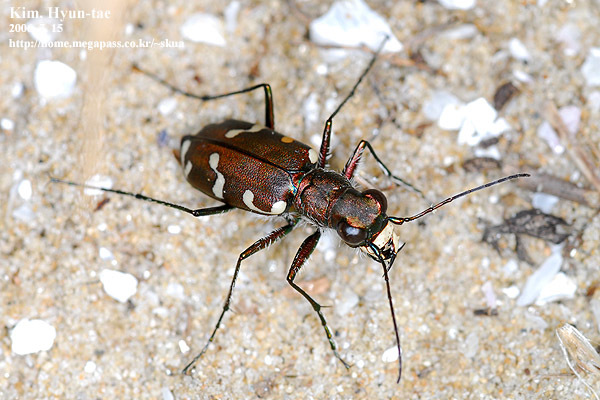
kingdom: Animalia
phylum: Arthropoda
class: Insecta
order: Coleoptera
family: Carabidae
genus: Cicindela
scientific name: Cicindela transbaicalica
